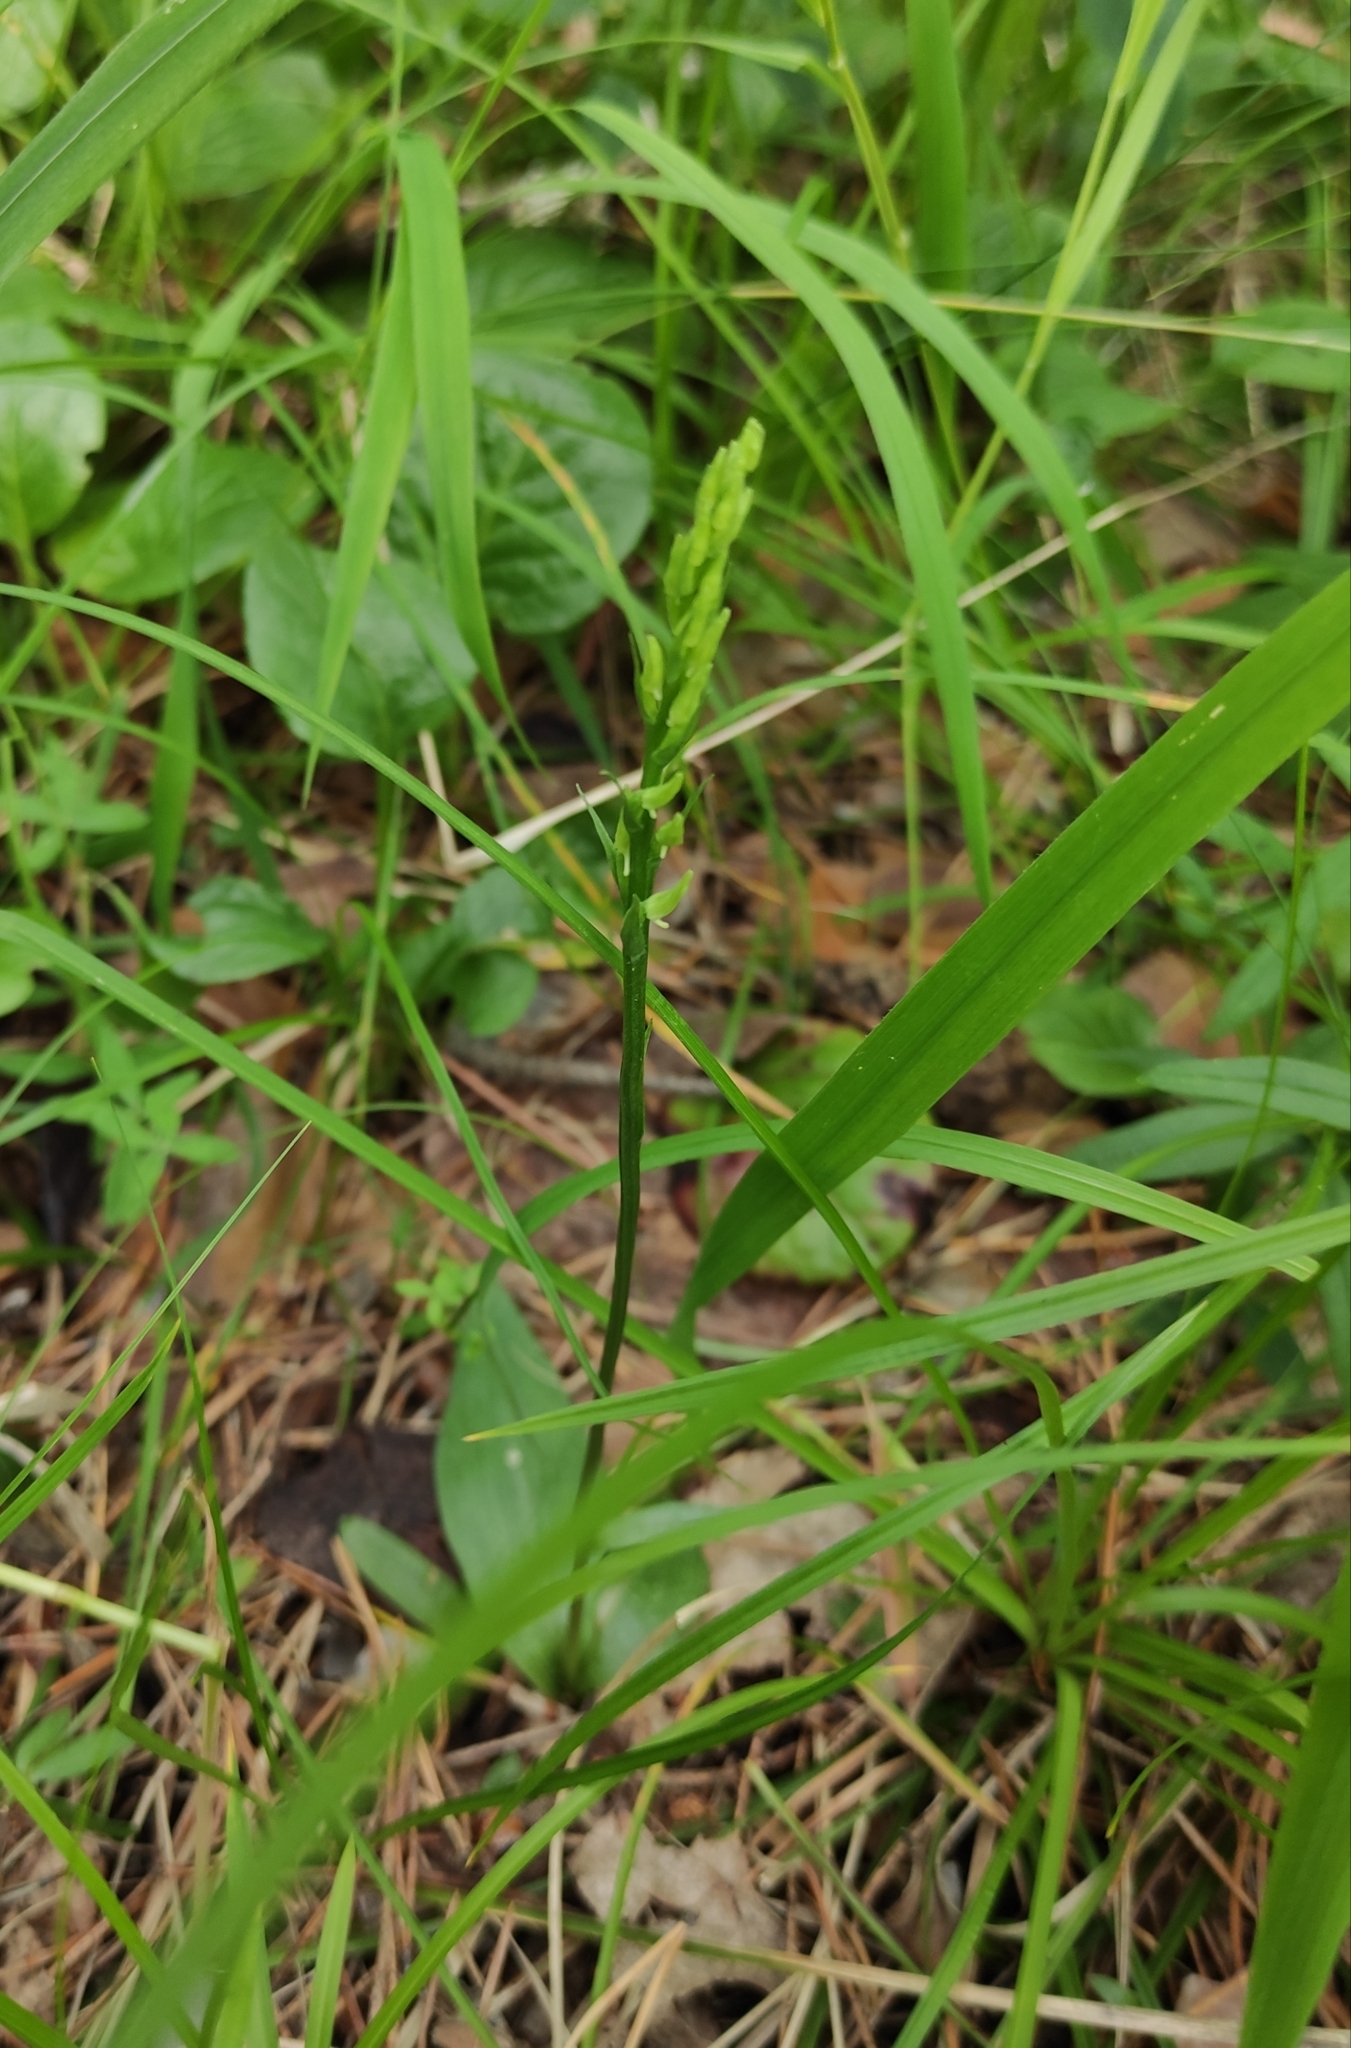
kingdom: Plantae
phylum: Tracheophyta
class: Liliopsida
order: Asparagales
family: Orchidaceae
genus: Hemipilia
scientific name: Hemipilia cucullata
